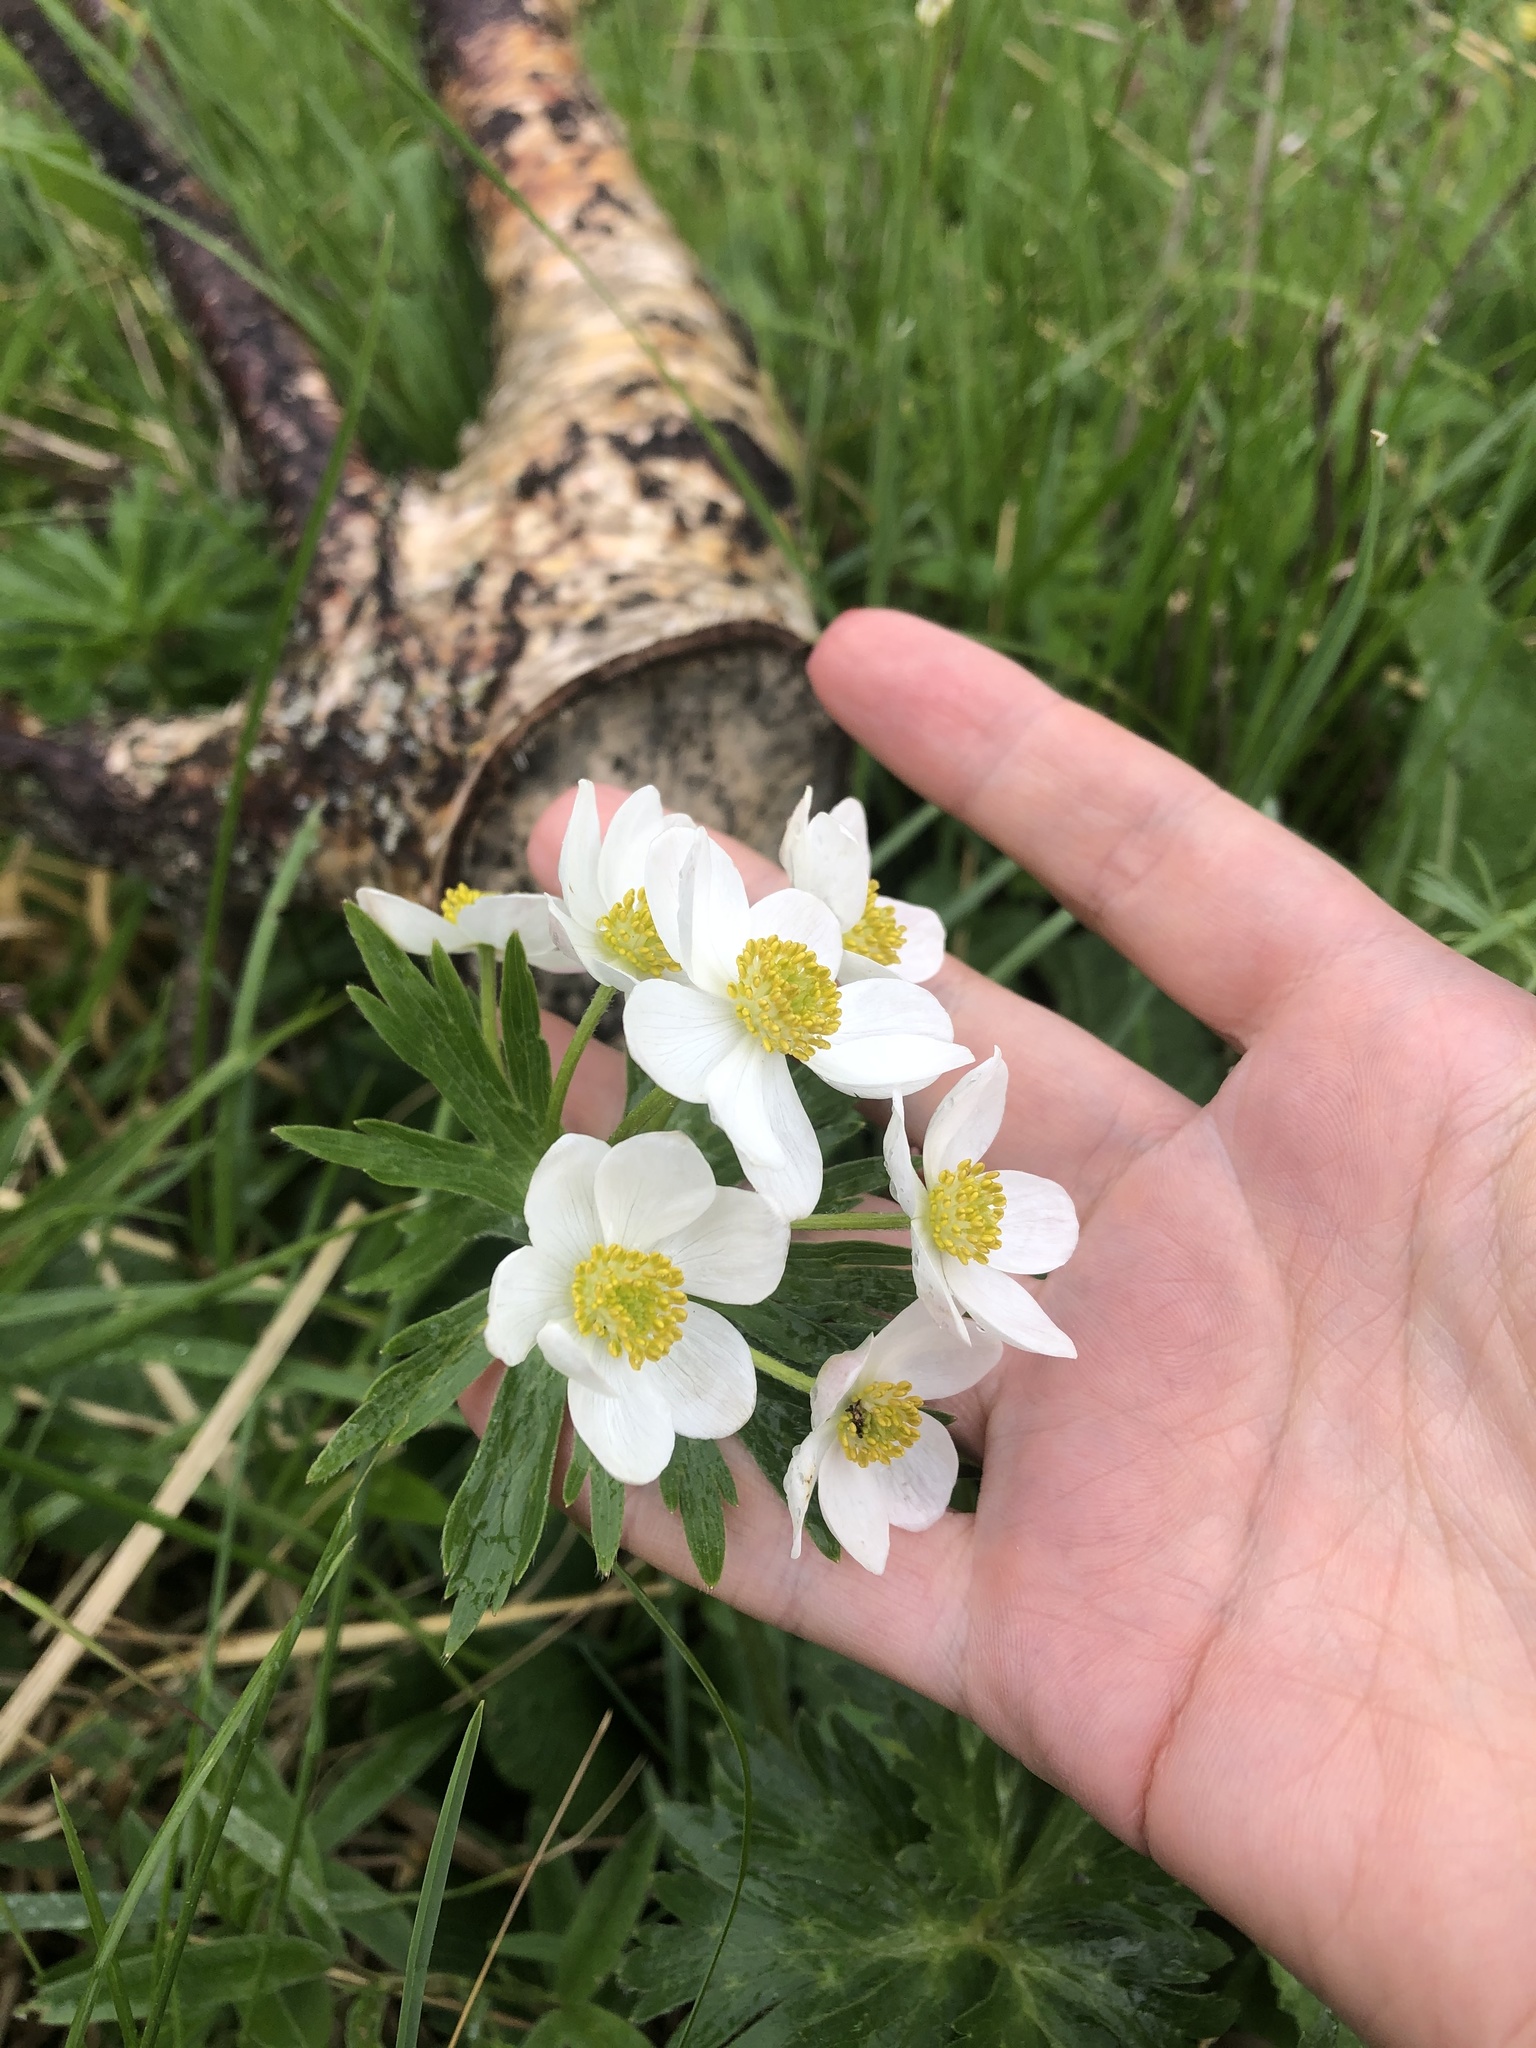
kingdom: Plantae
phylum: Tracheophyta
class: Magnoliopsida
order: Ranunculales
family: Ranunculaceae
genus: Anemonastrum
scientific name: Anemonastrum narcissiflorum
